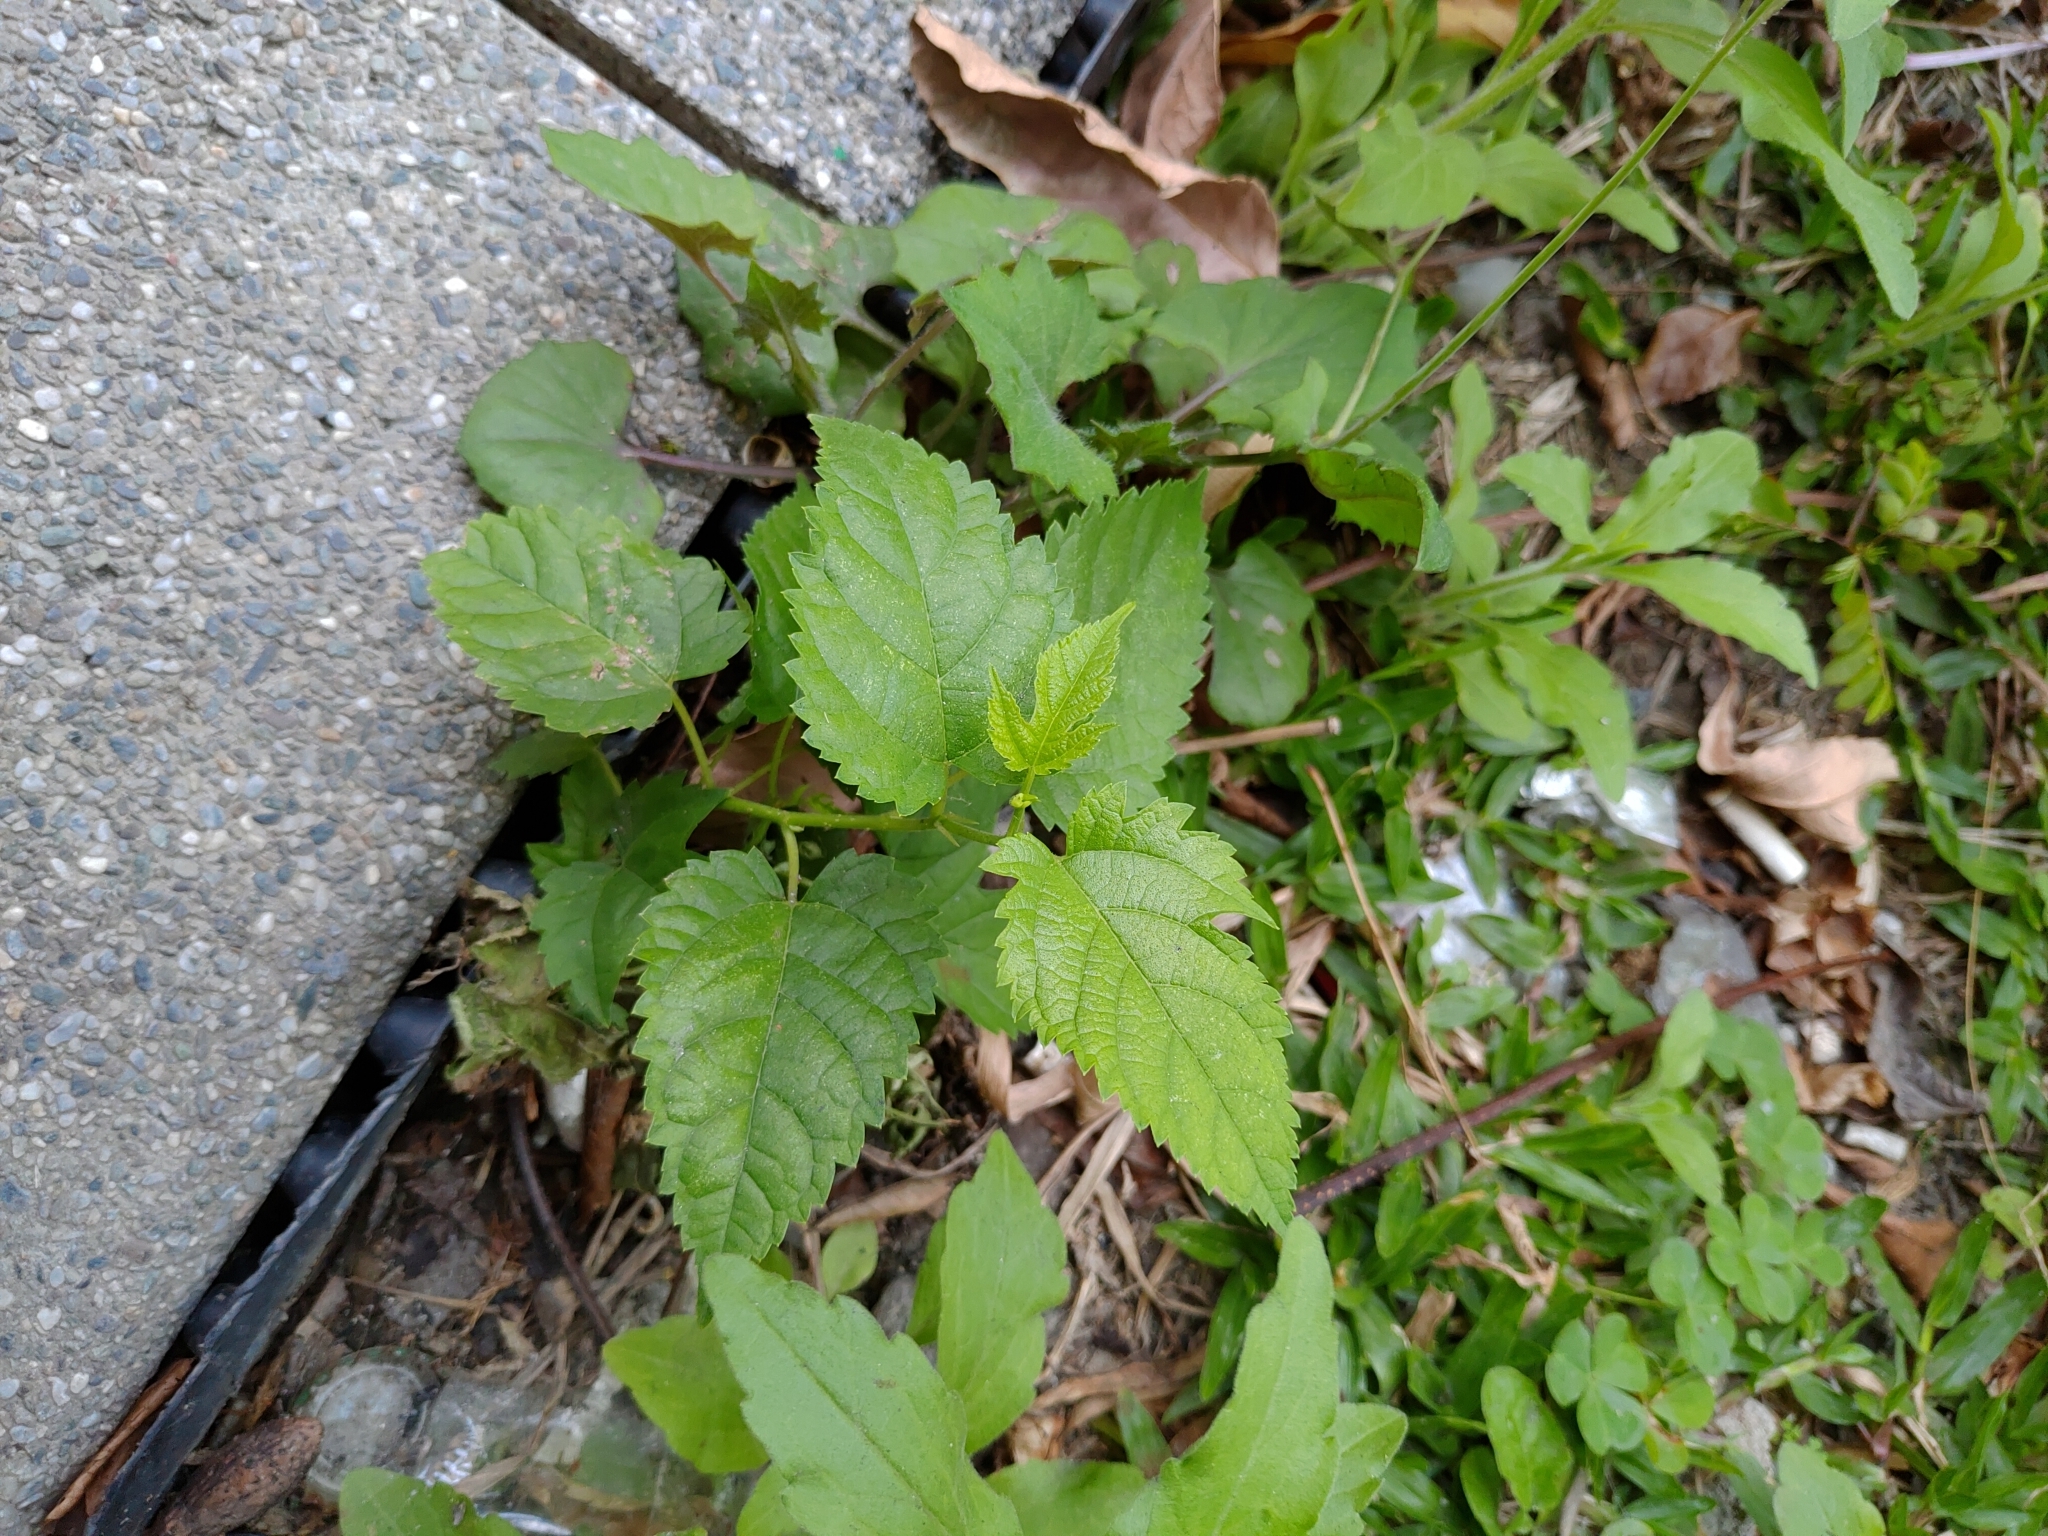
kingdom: Plantae
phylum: Tracheophyta
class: Magnoliopsida
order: Rosales
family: Moraceae
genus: Morus
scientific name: Morus indica
